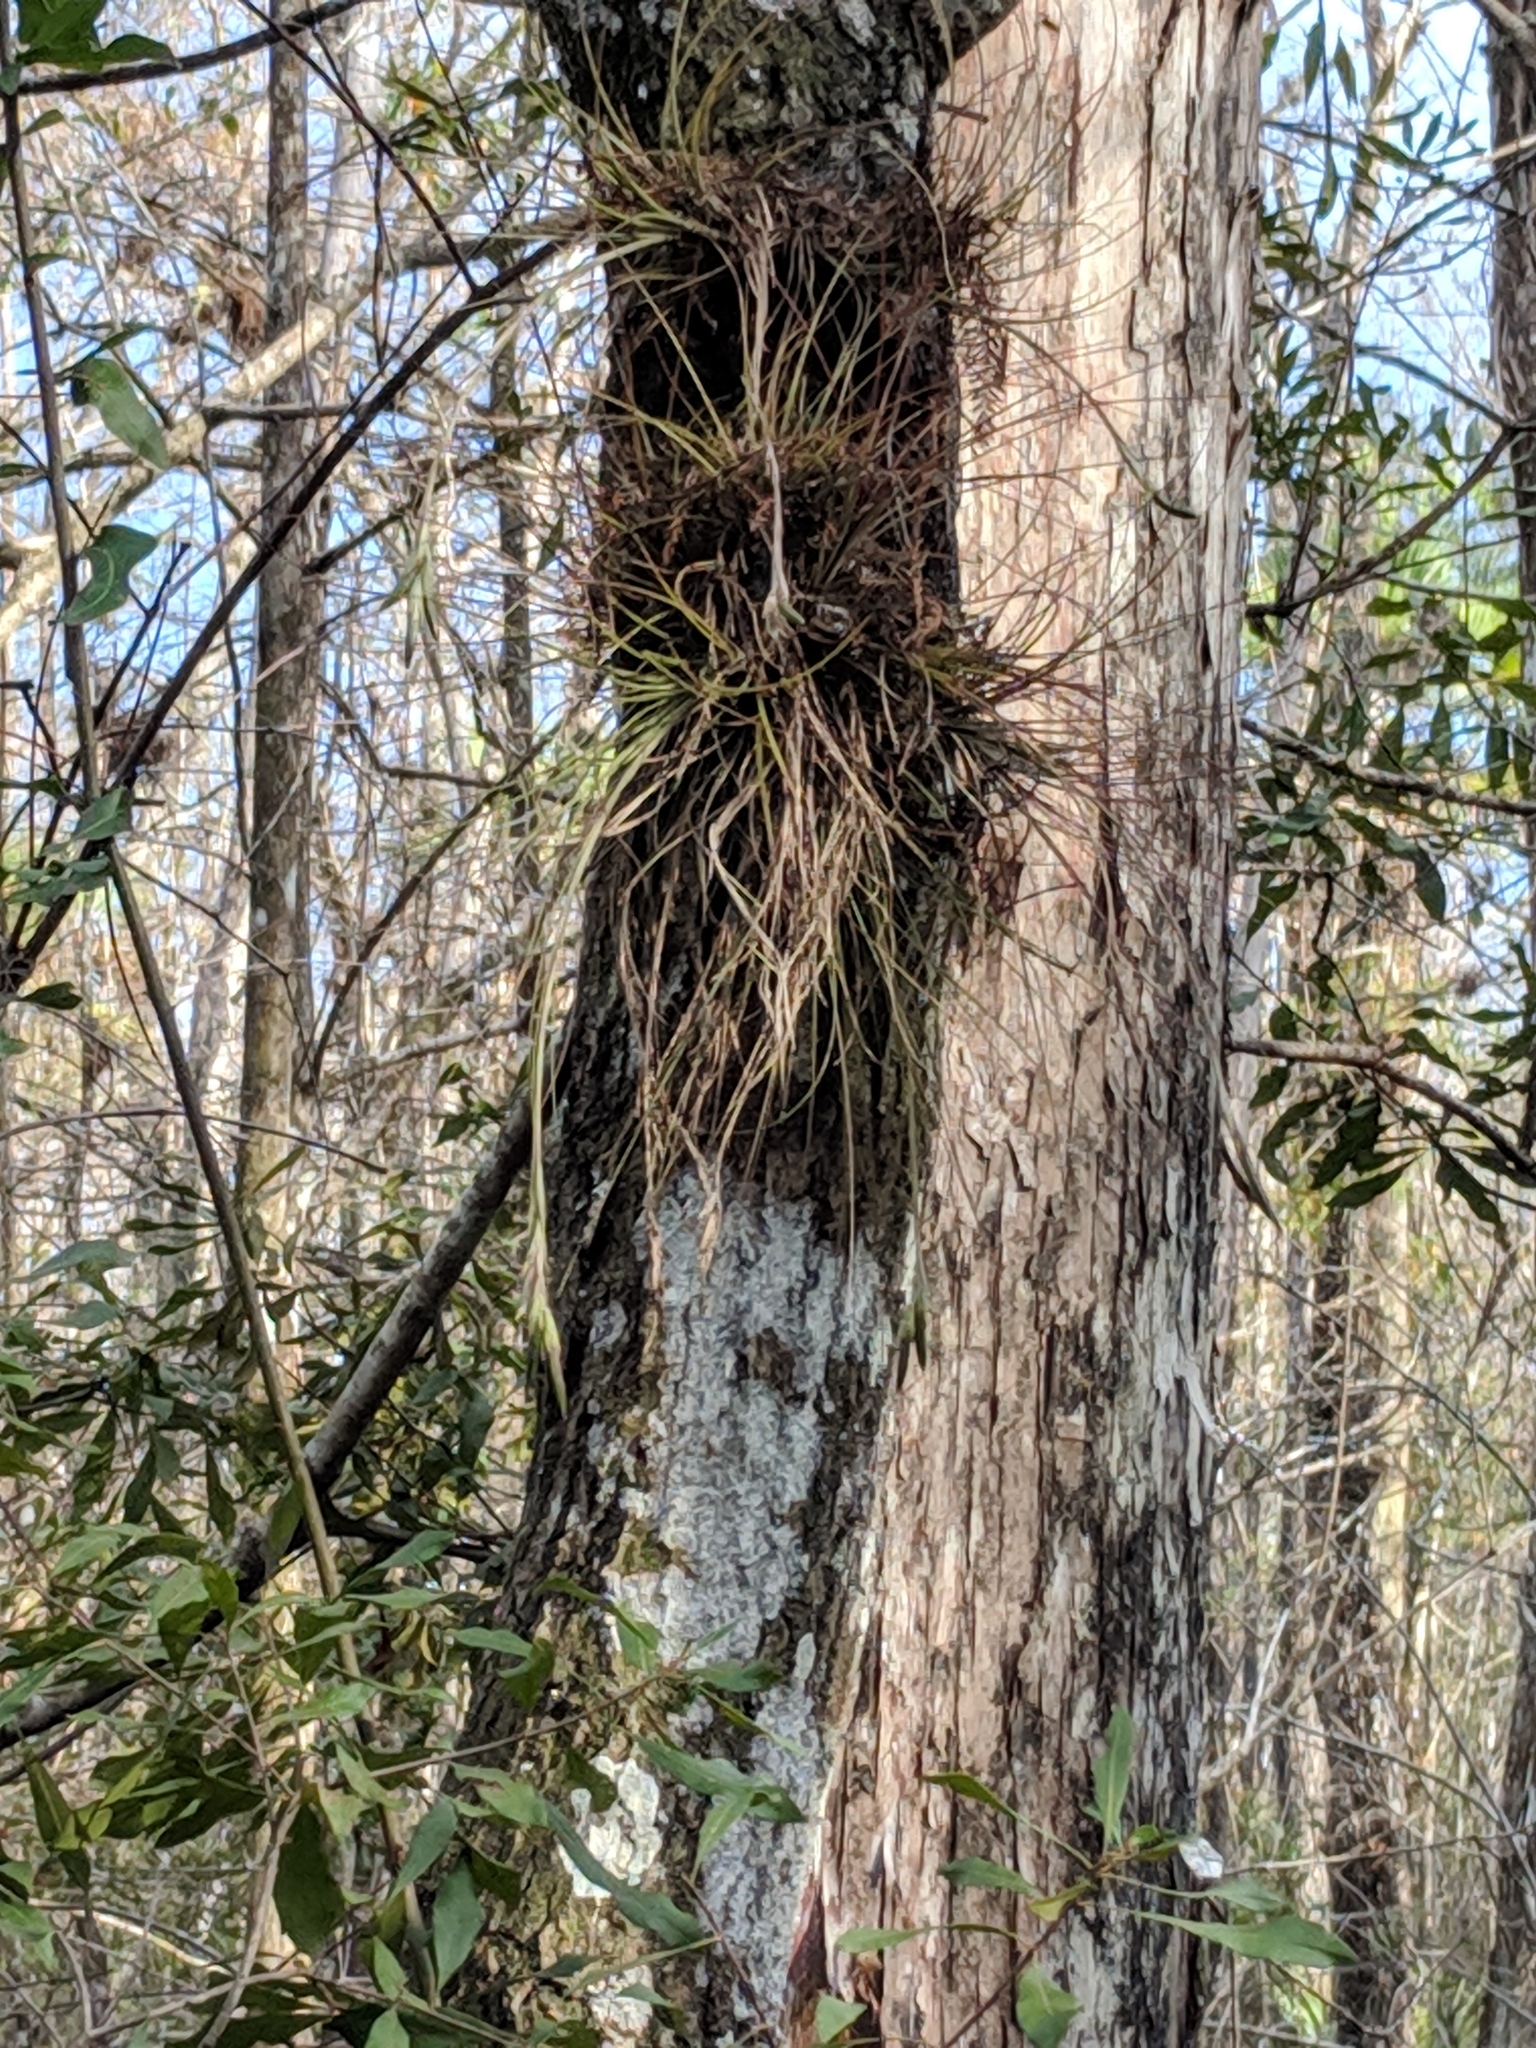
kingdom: Plantae
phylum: Tracheophyta
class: Liliopsida
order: Poales
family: Bromeliaceae
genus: Tillandsia
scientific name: Tillandsia setacea
